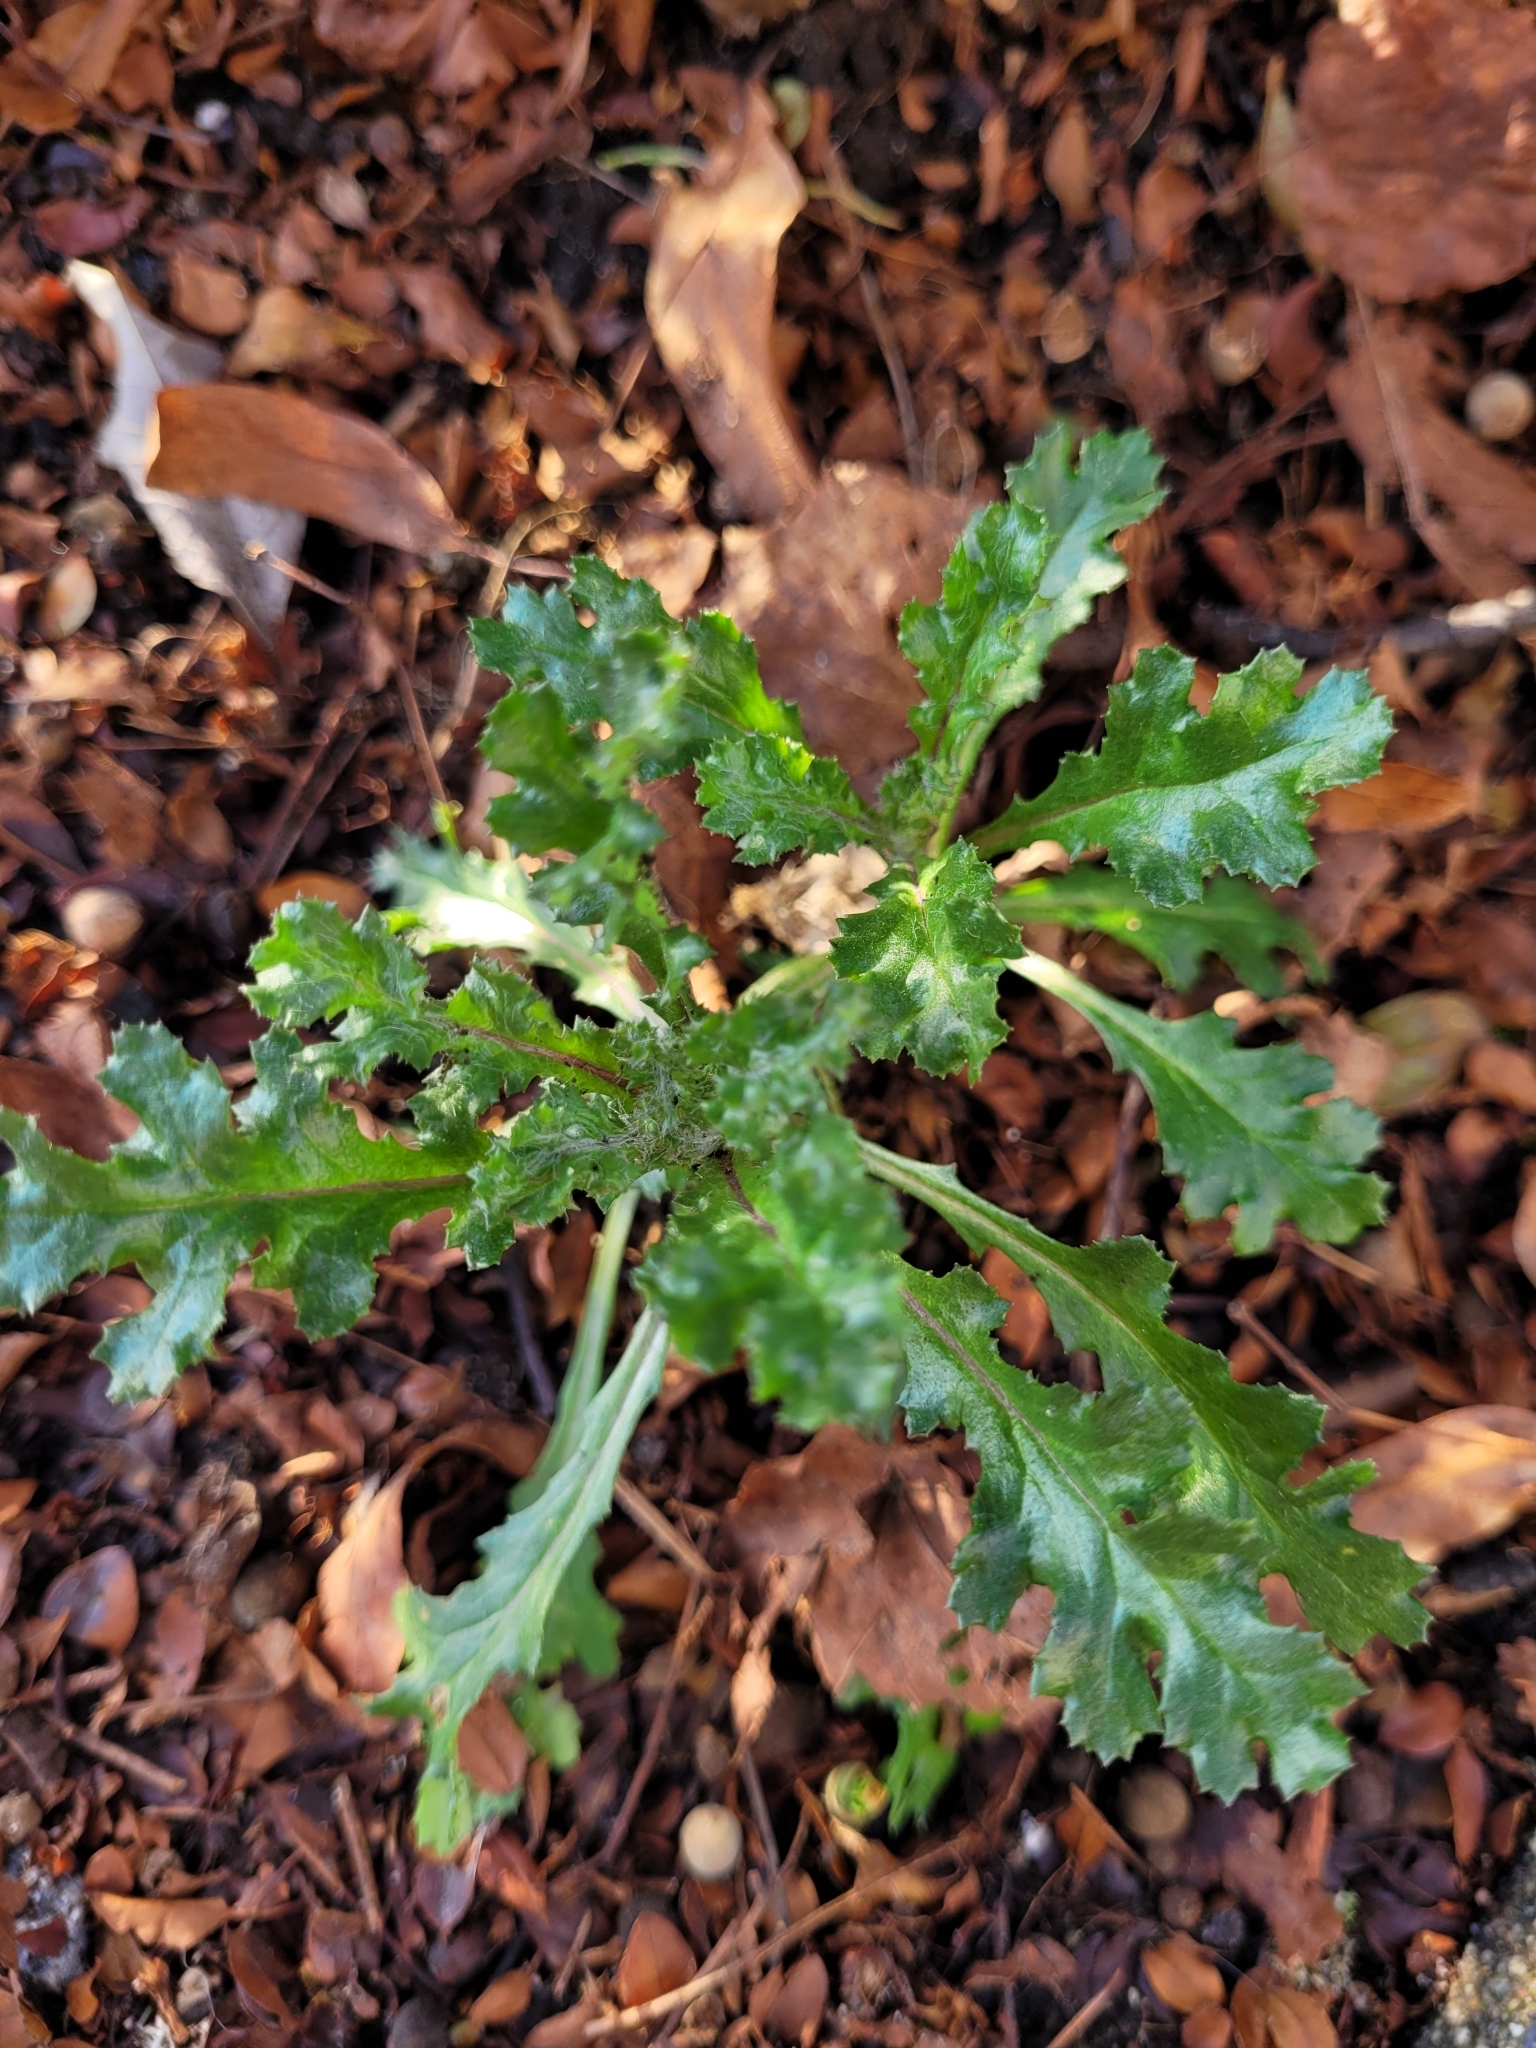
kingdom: Plantae
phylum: Tracheophyta
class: Magnoliopsida
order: Asterales
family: Asteraceae
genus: Senecio
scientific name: Senecio vulgaris
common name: Old-man-in-the-spring
